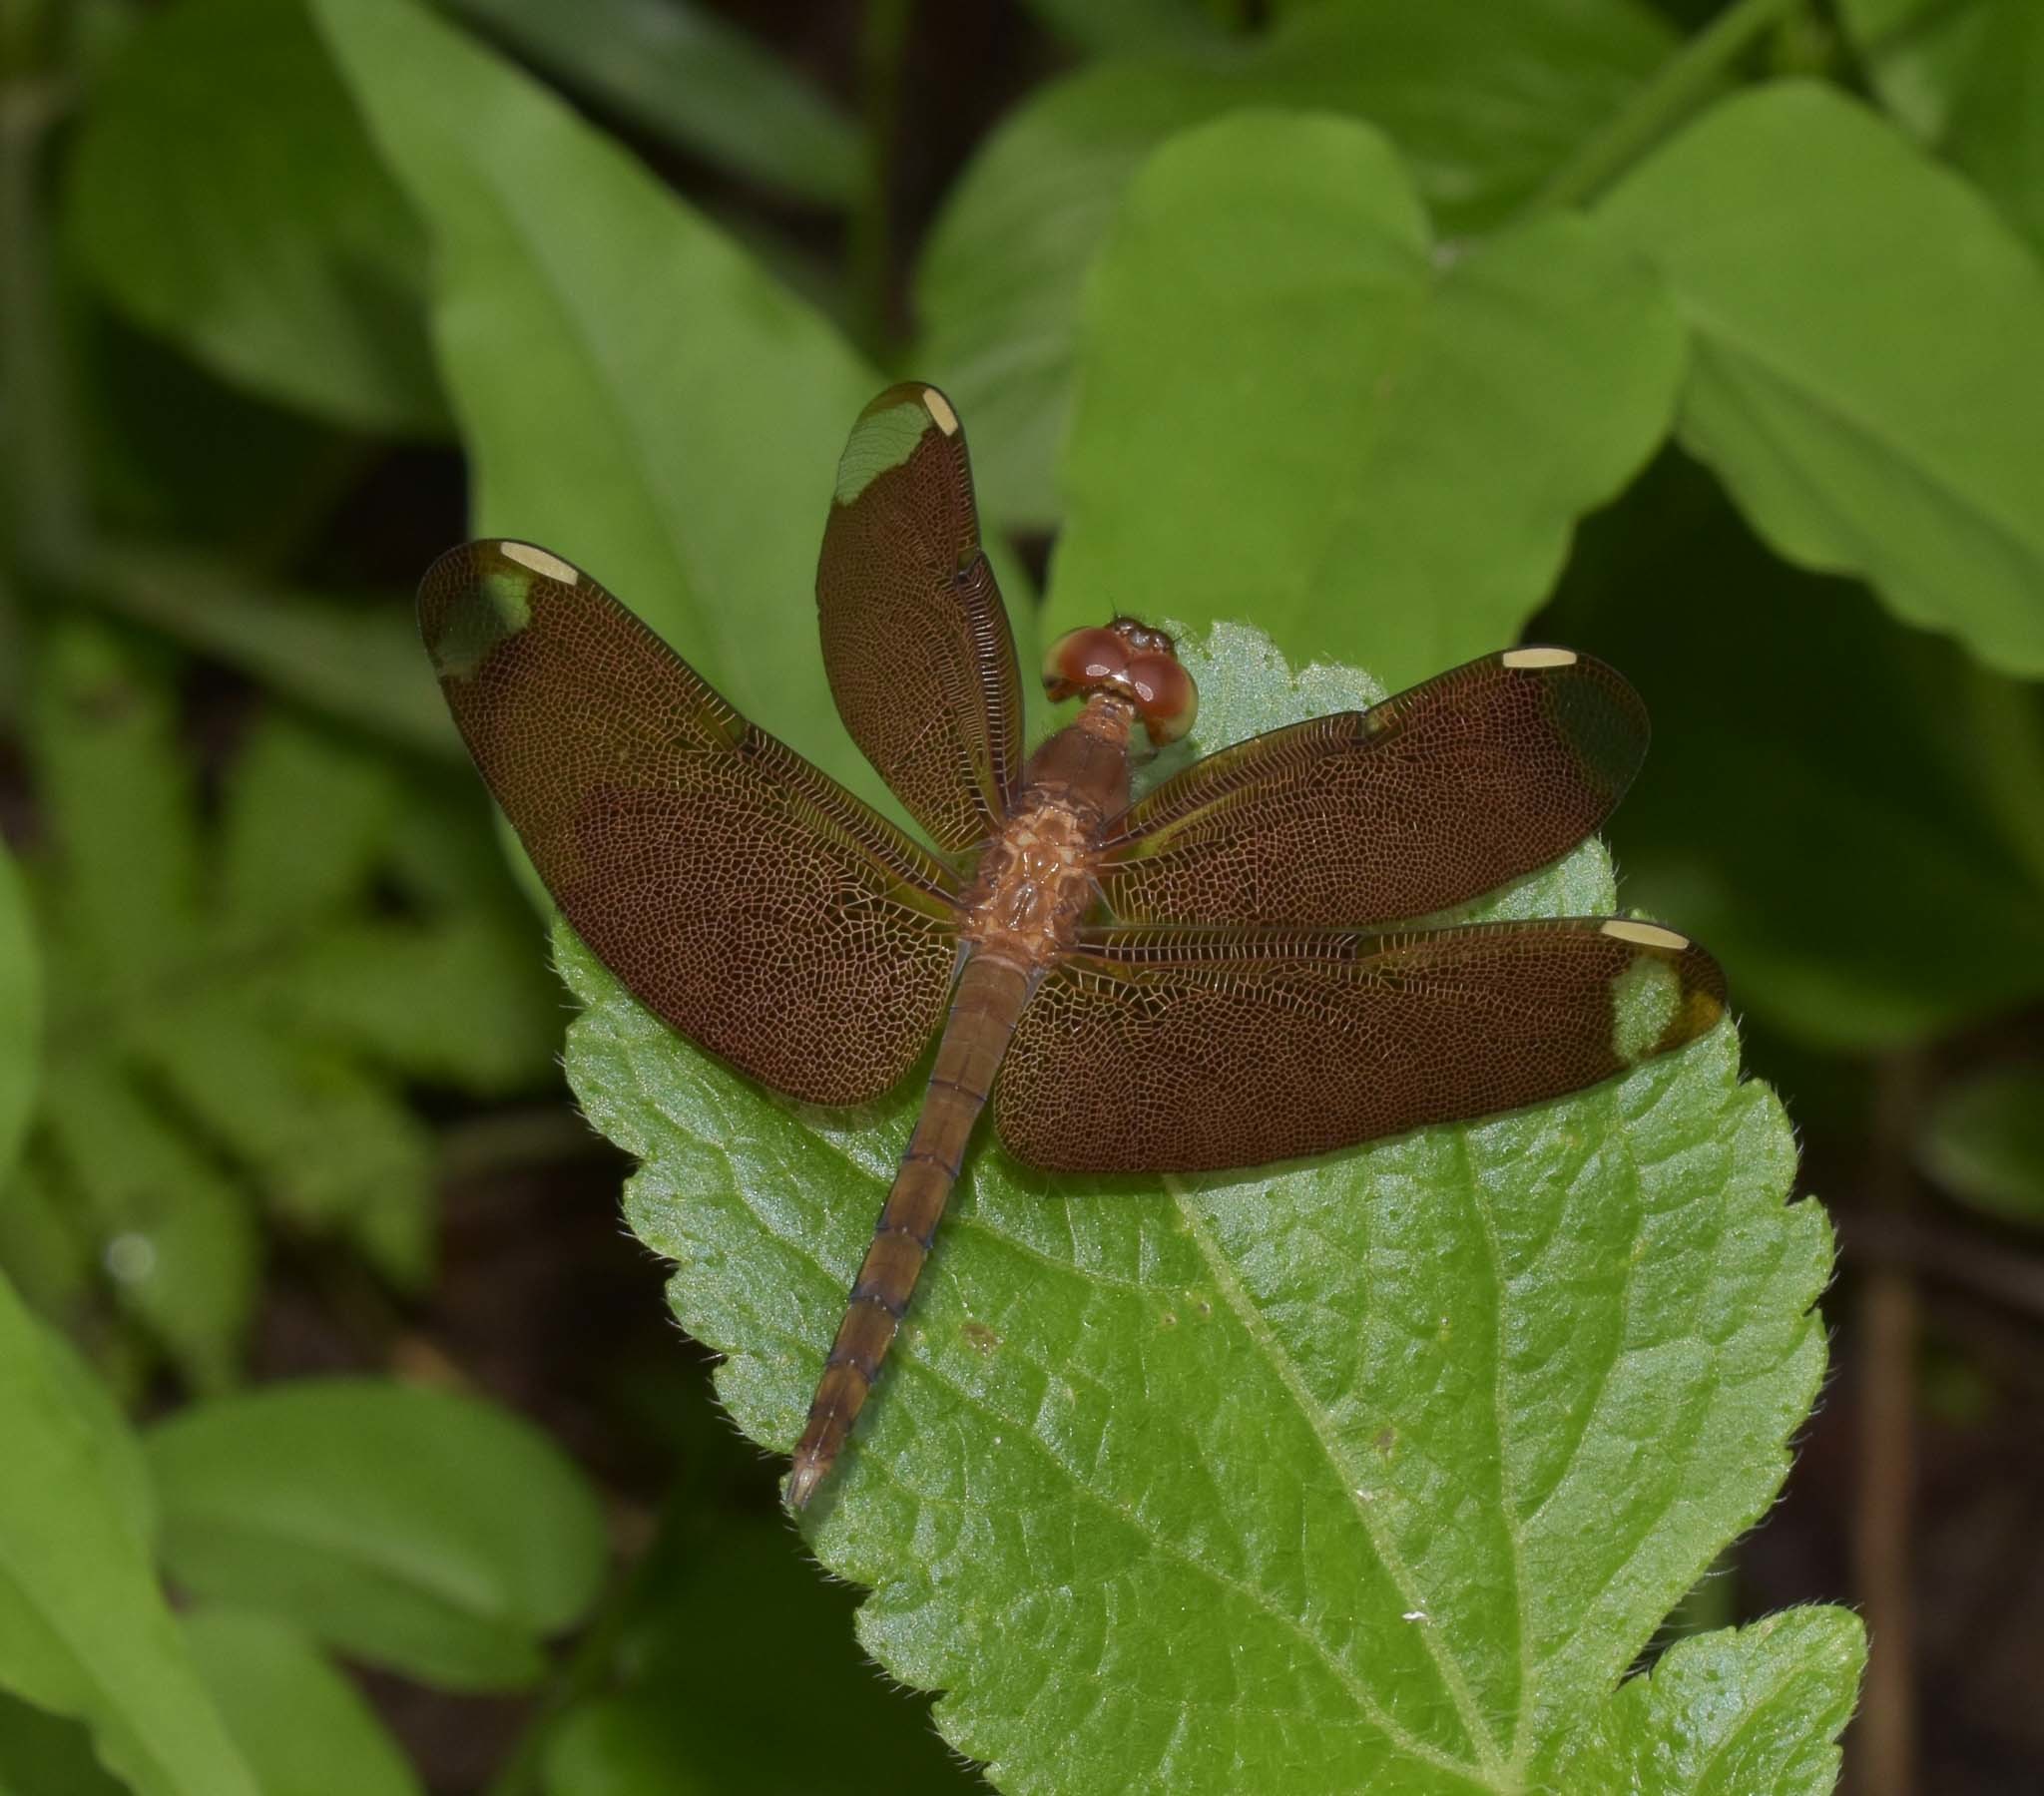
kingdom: Animalia
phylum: Arthropoda
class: Insecta
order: Odonata
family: Libellulidae
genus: Neurothemis
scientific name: Neurothemis fulvia
